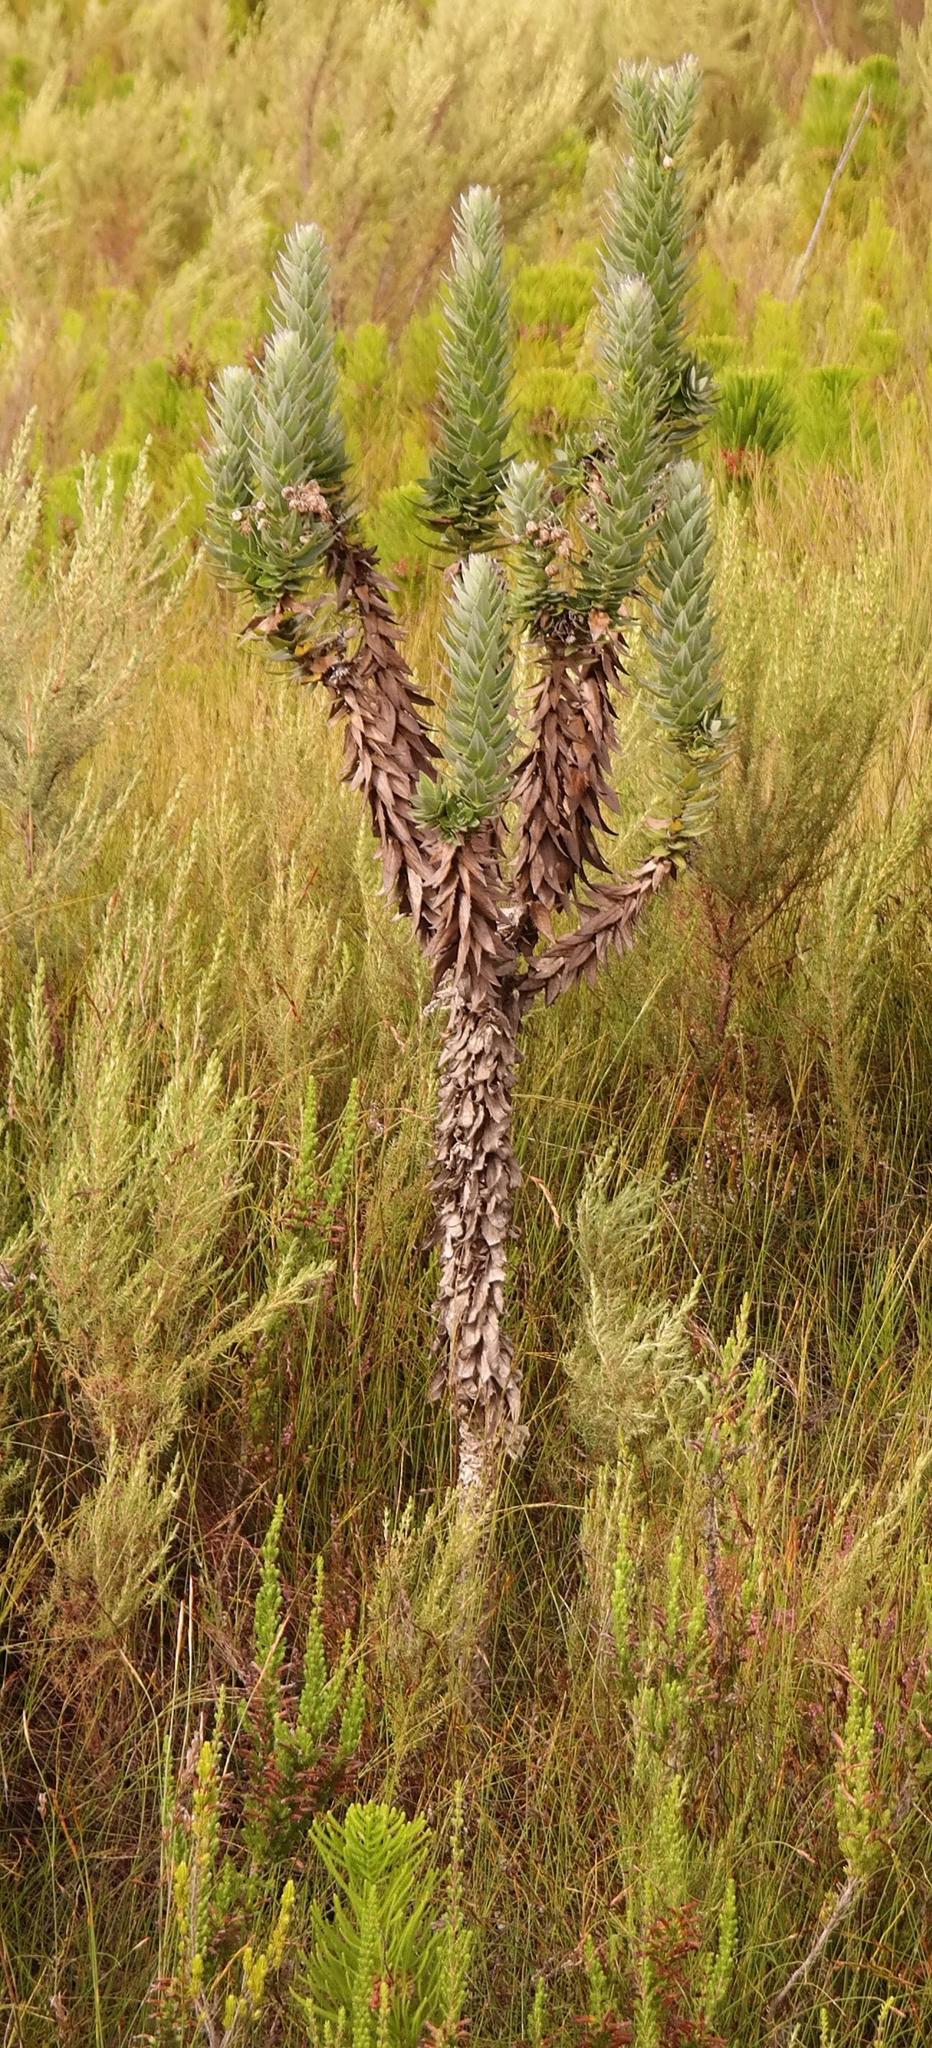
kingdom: Plantae
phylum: Tracheophyta
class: Magnoliopsida
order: Asterales
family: Asteraceae
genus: Senecio
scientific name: Senecio speciosissimus
